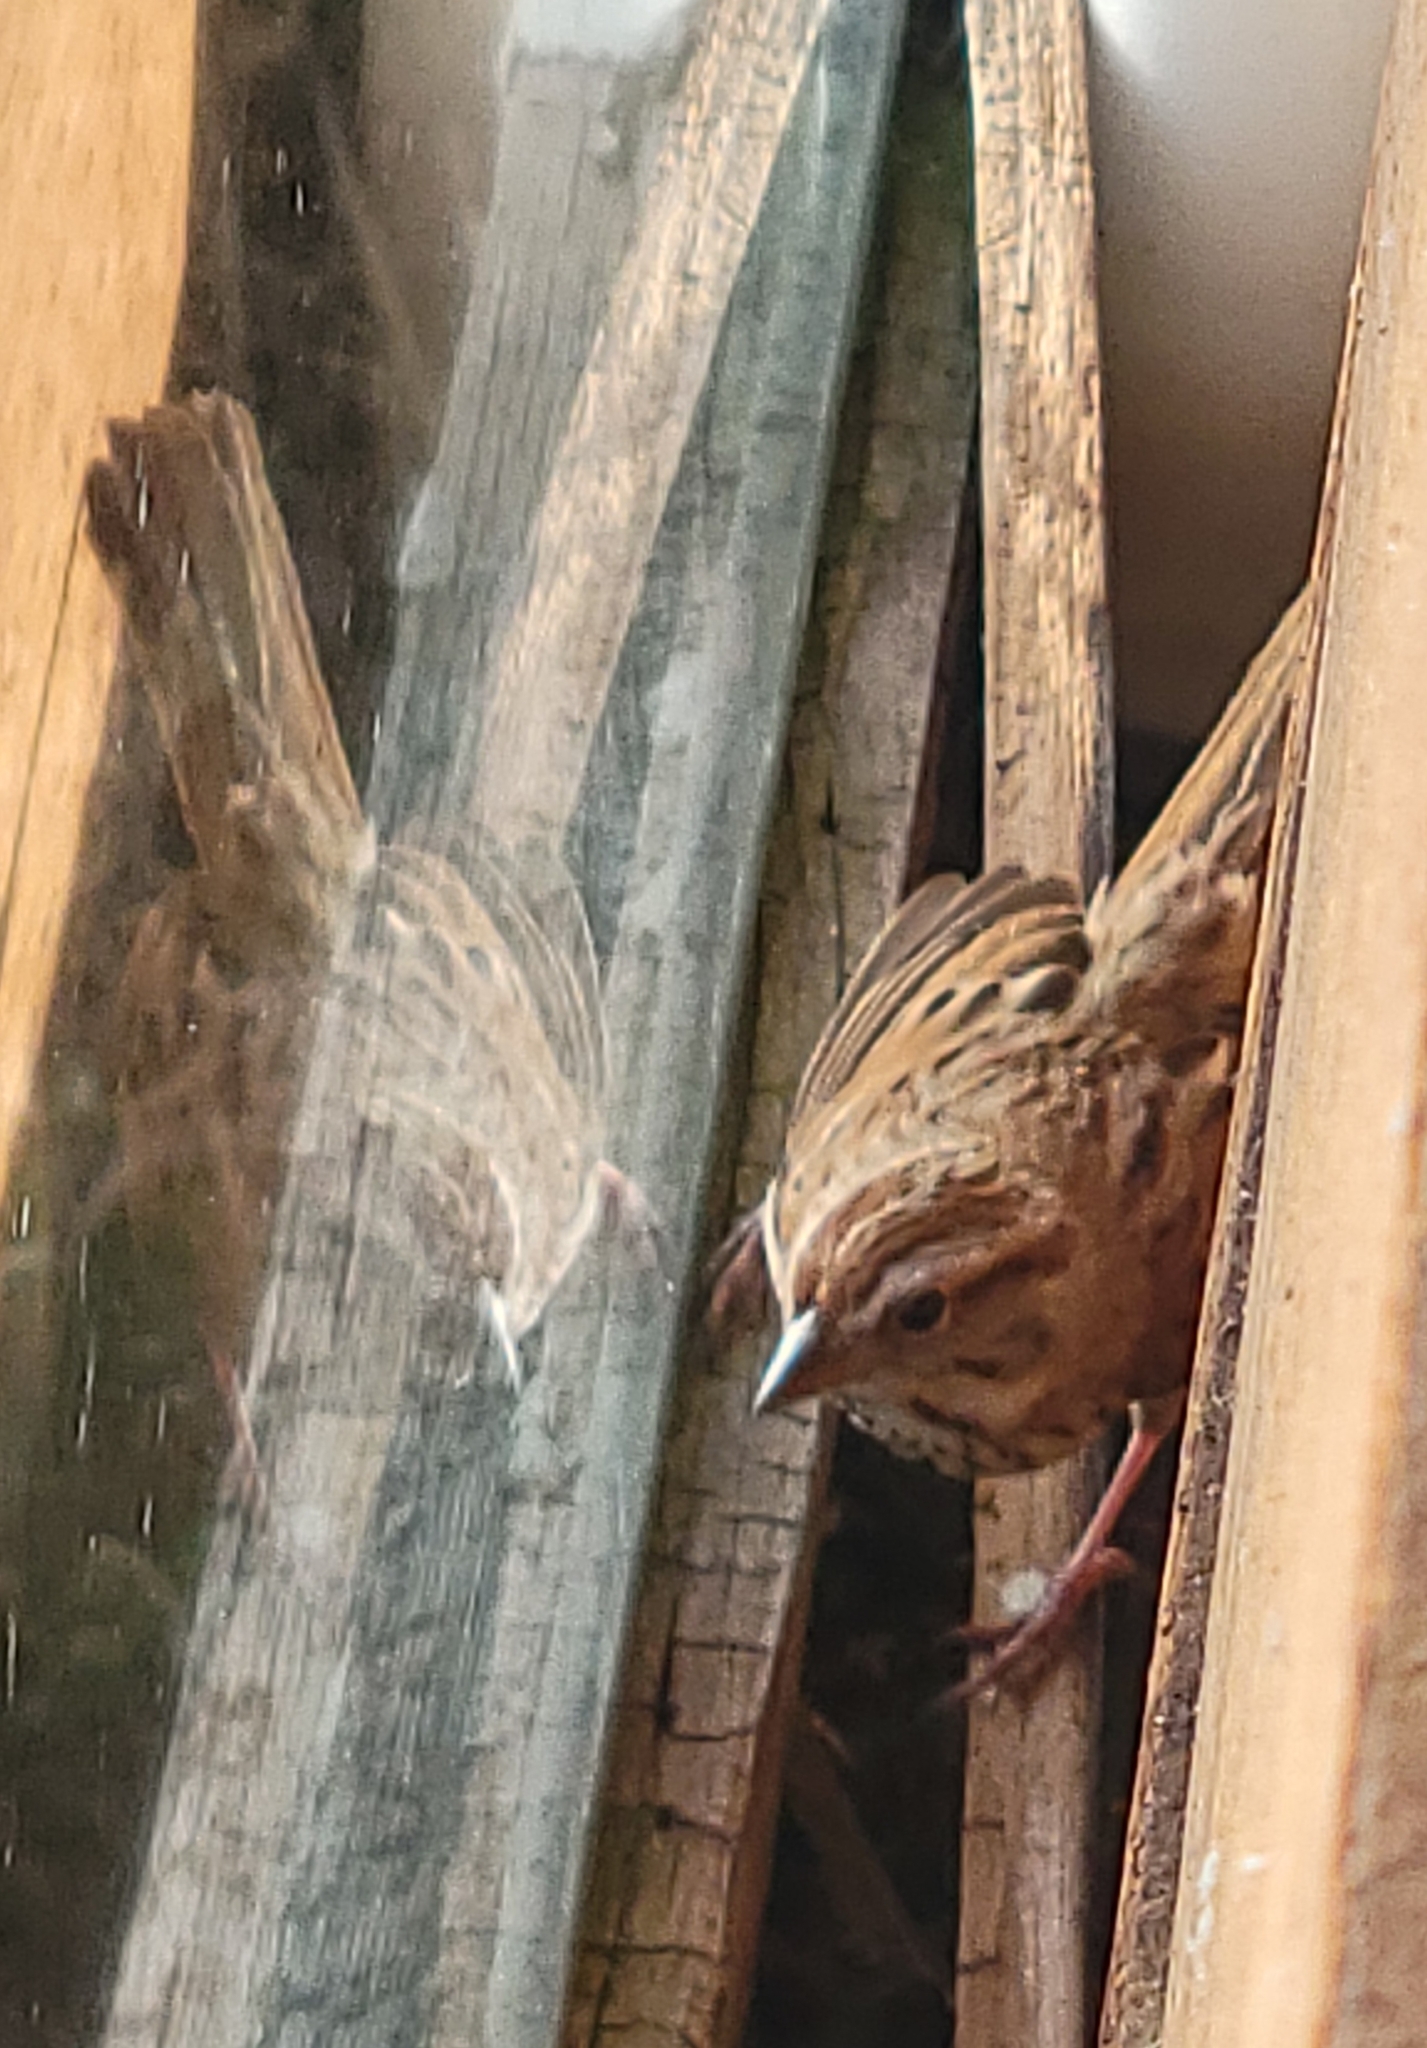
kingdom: Animalia
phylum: Chordata
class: Aves
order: Passeriformes
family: Passerellidae
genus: Melospiza
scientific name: Melospiza melodia
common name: Song sparrow
